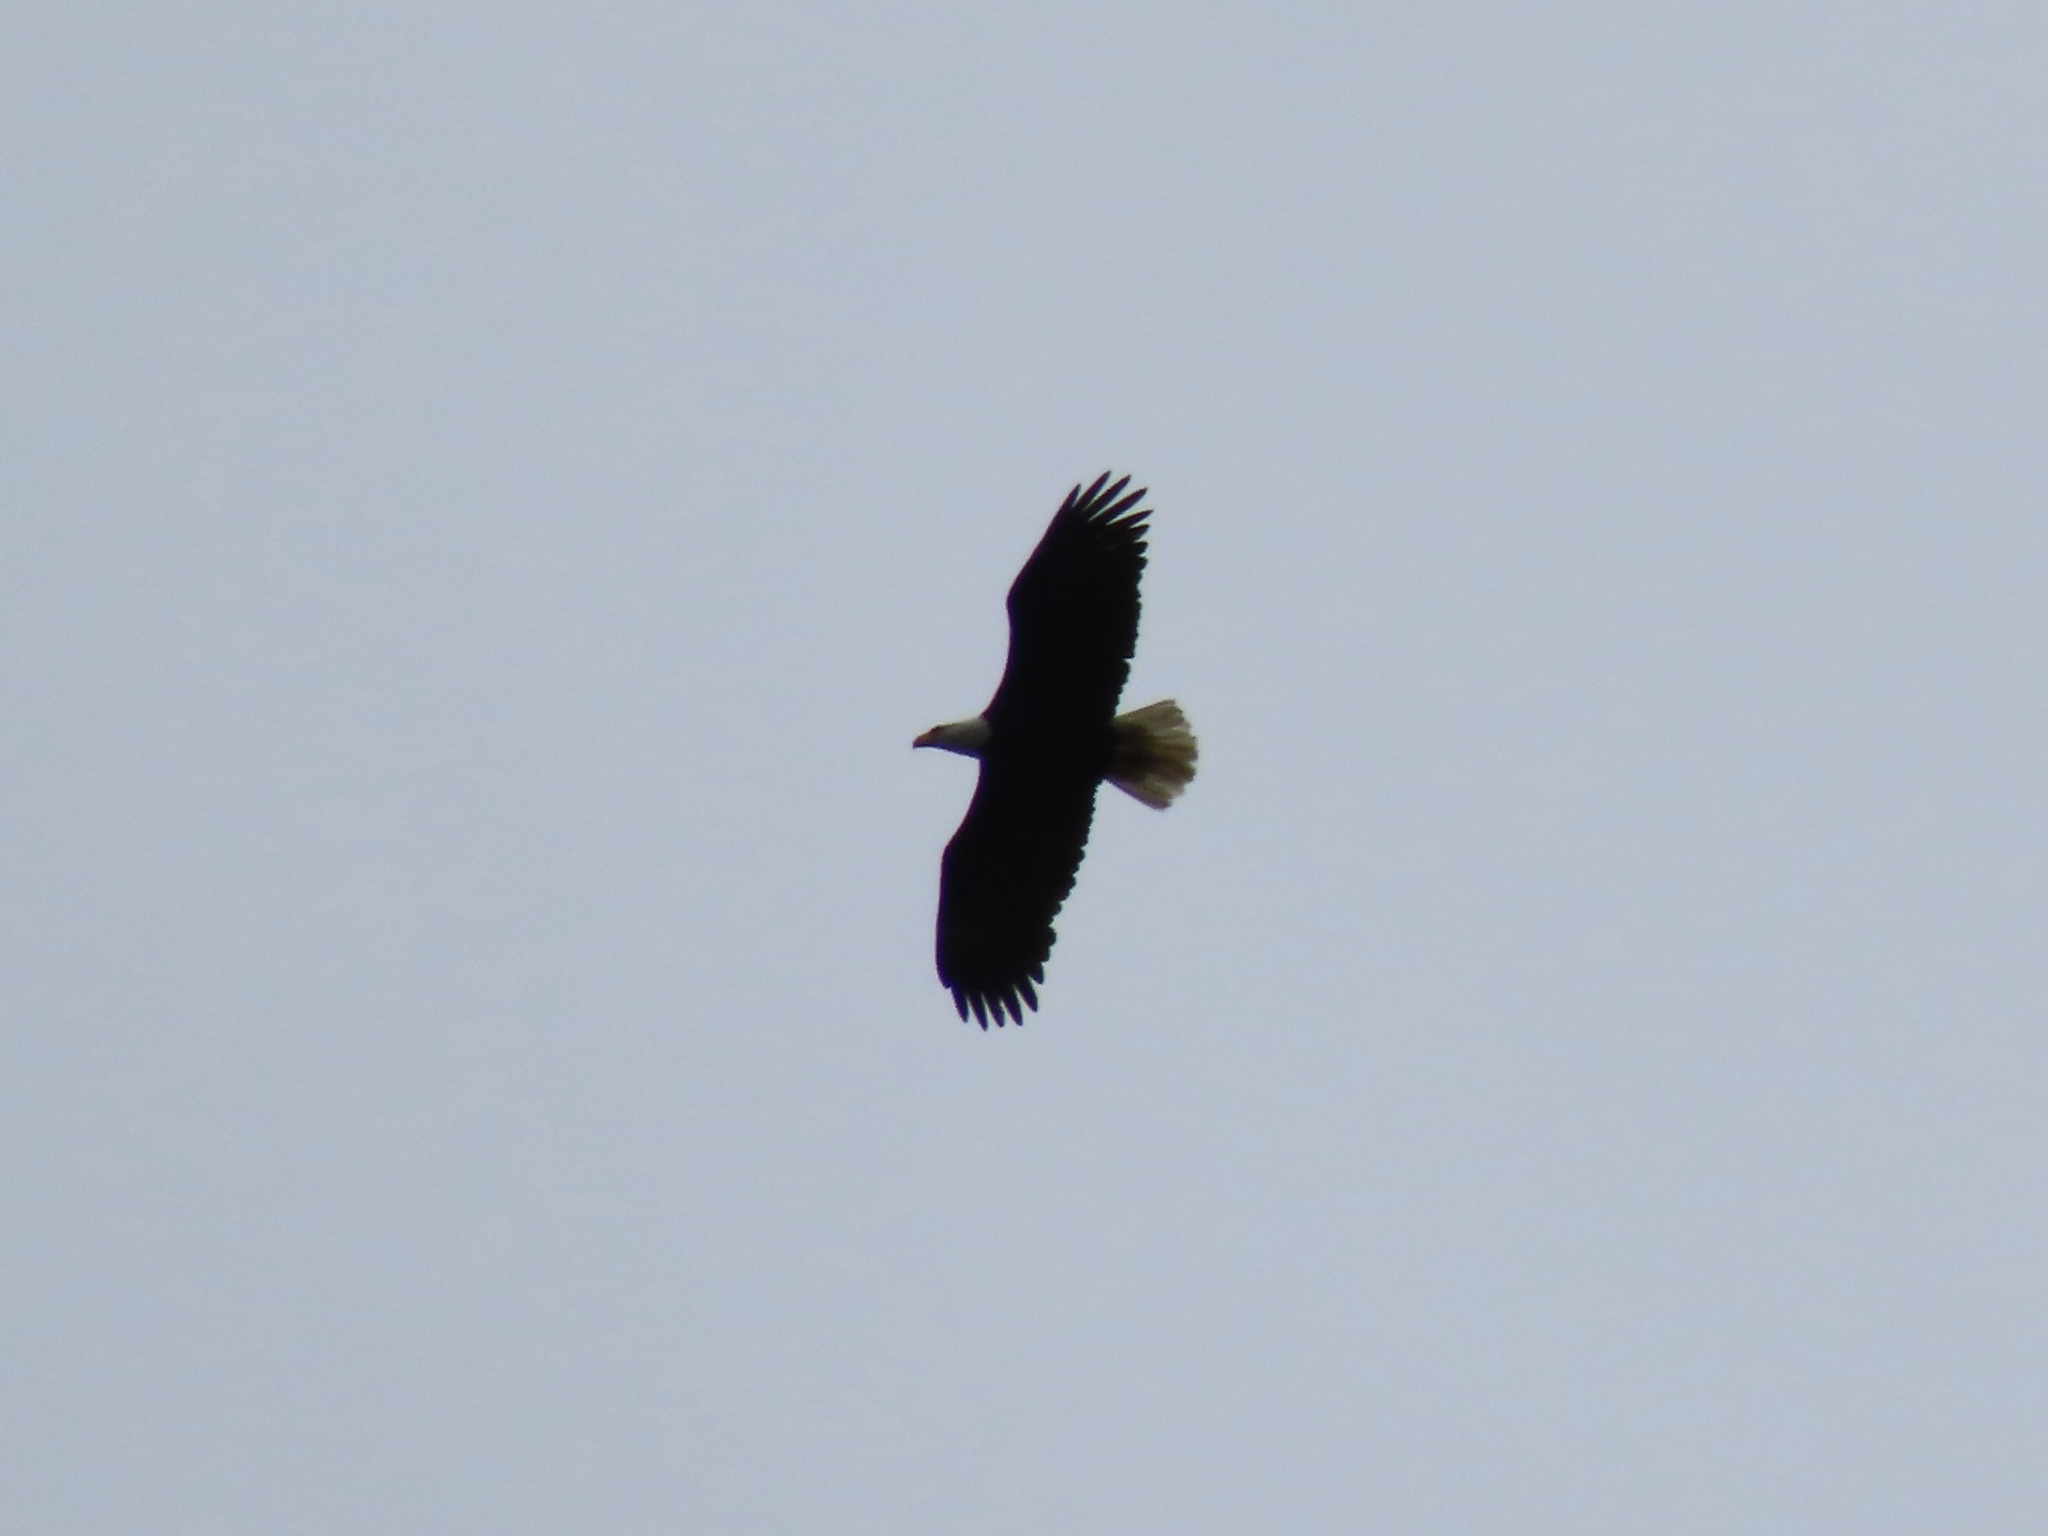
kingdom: Animalia
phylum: Chordata
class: Aves
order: Accipitriformes
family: Accipitridae
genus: Haliaeetus
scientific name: Haliaeetus leucocephalus
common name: Bald eagle
